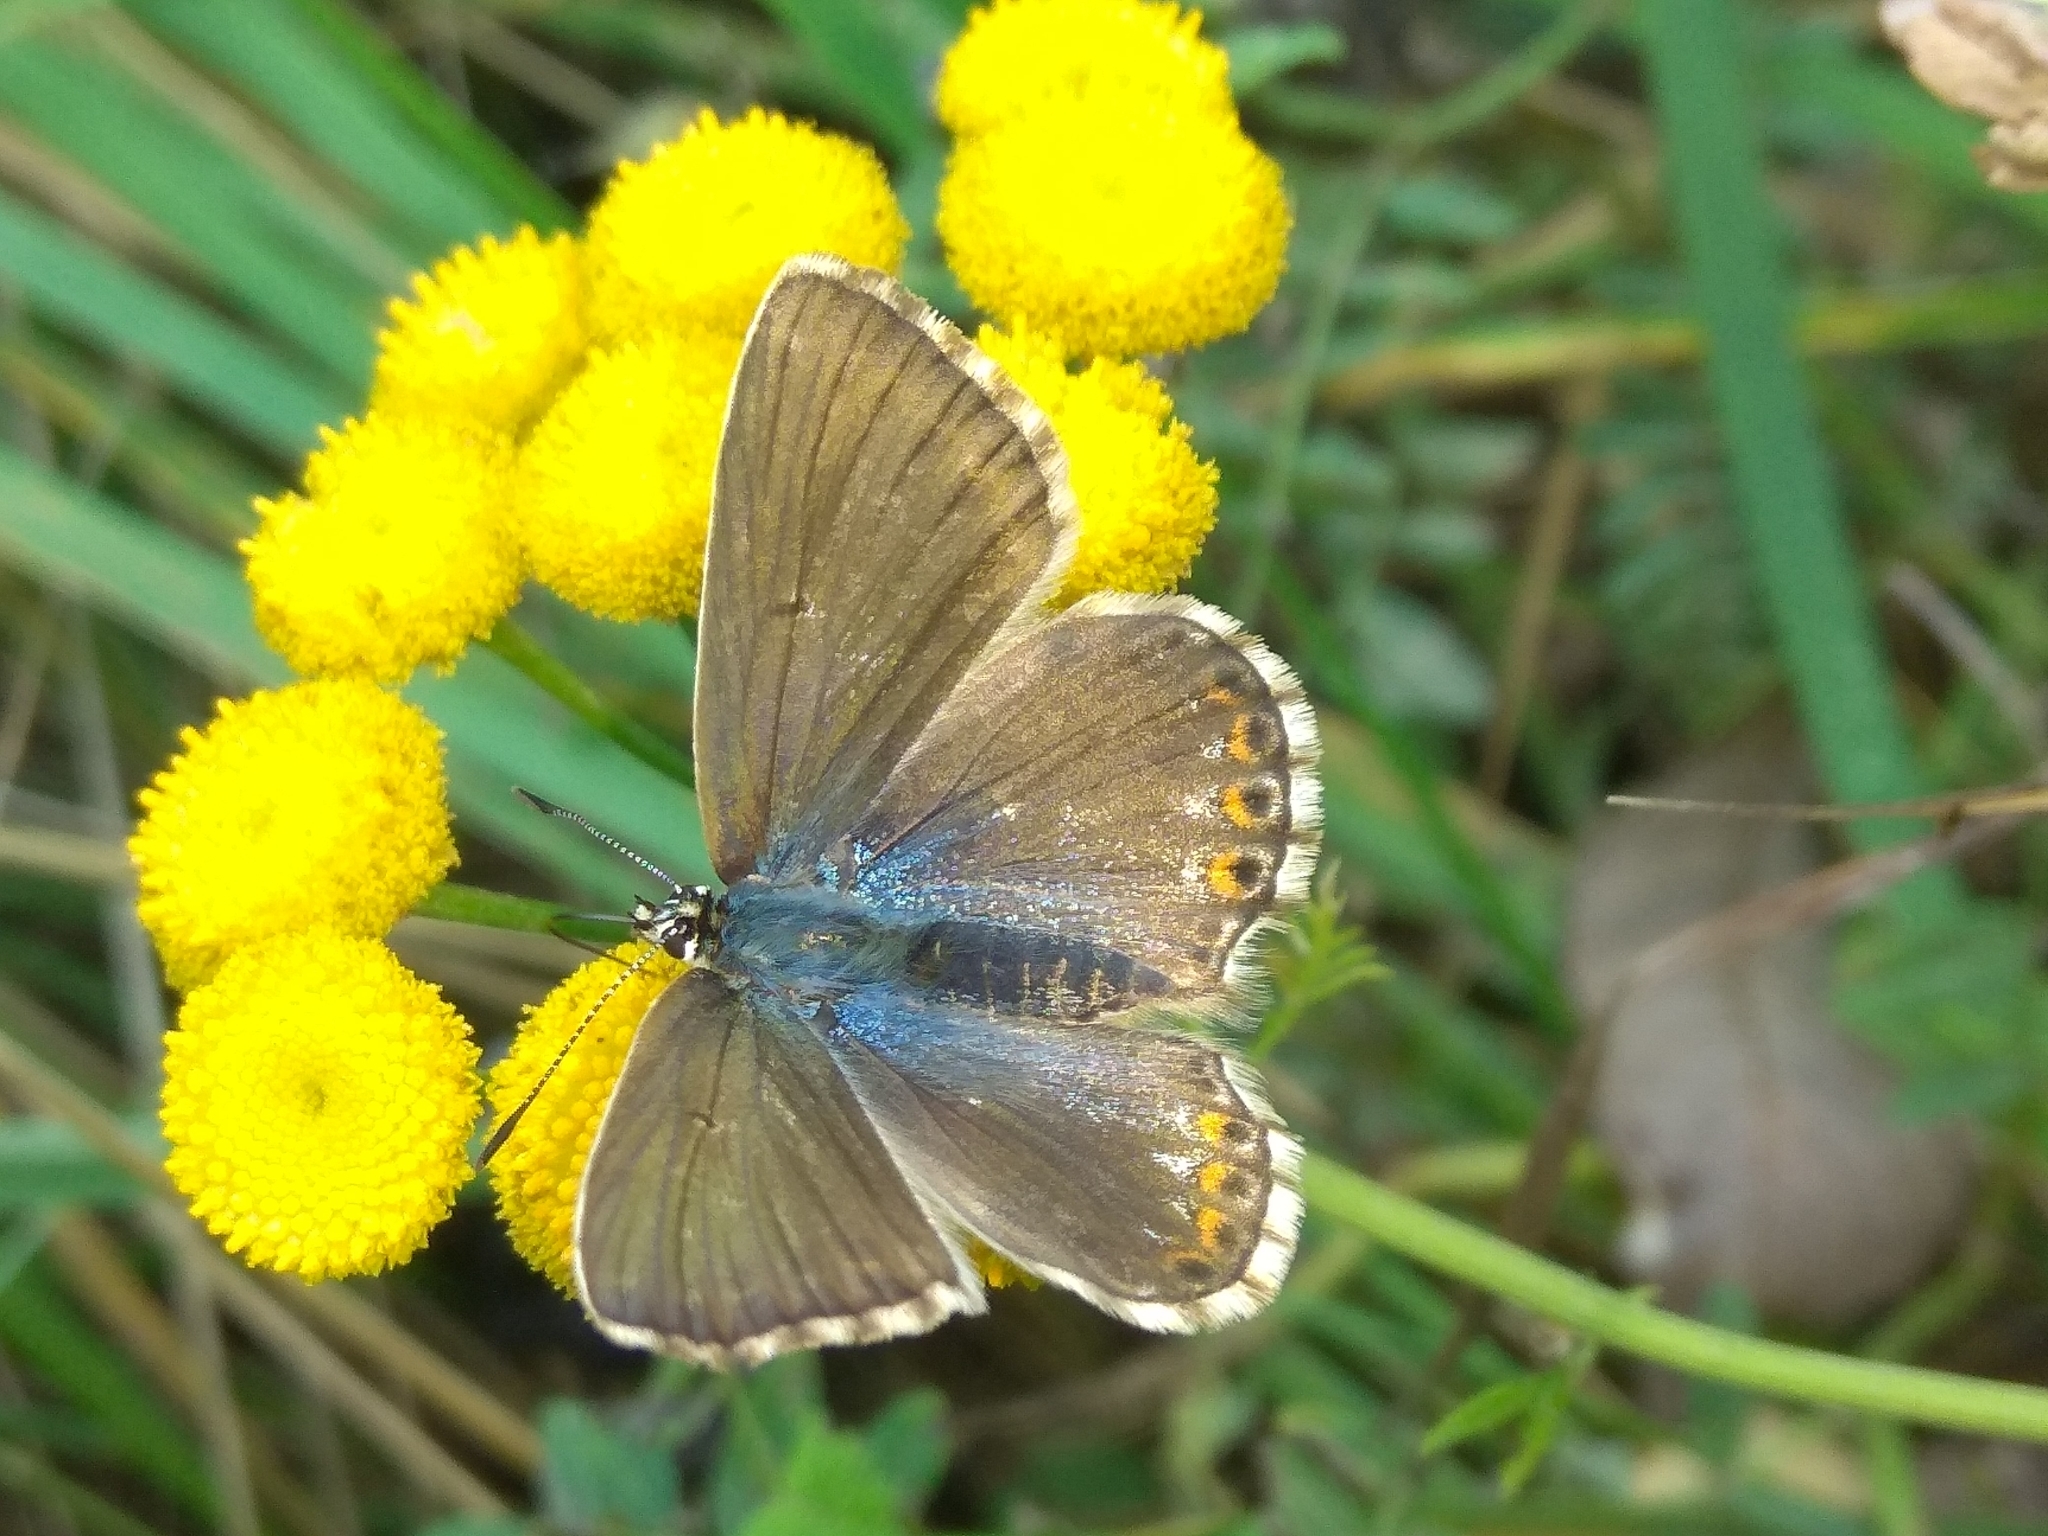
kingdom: Animalia
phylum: Arthropoda
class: Insecta
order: Lepidoptera
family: Lycaenidae
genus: Lysandra
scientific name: Lysandra coridon
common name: Chalkhill blue
